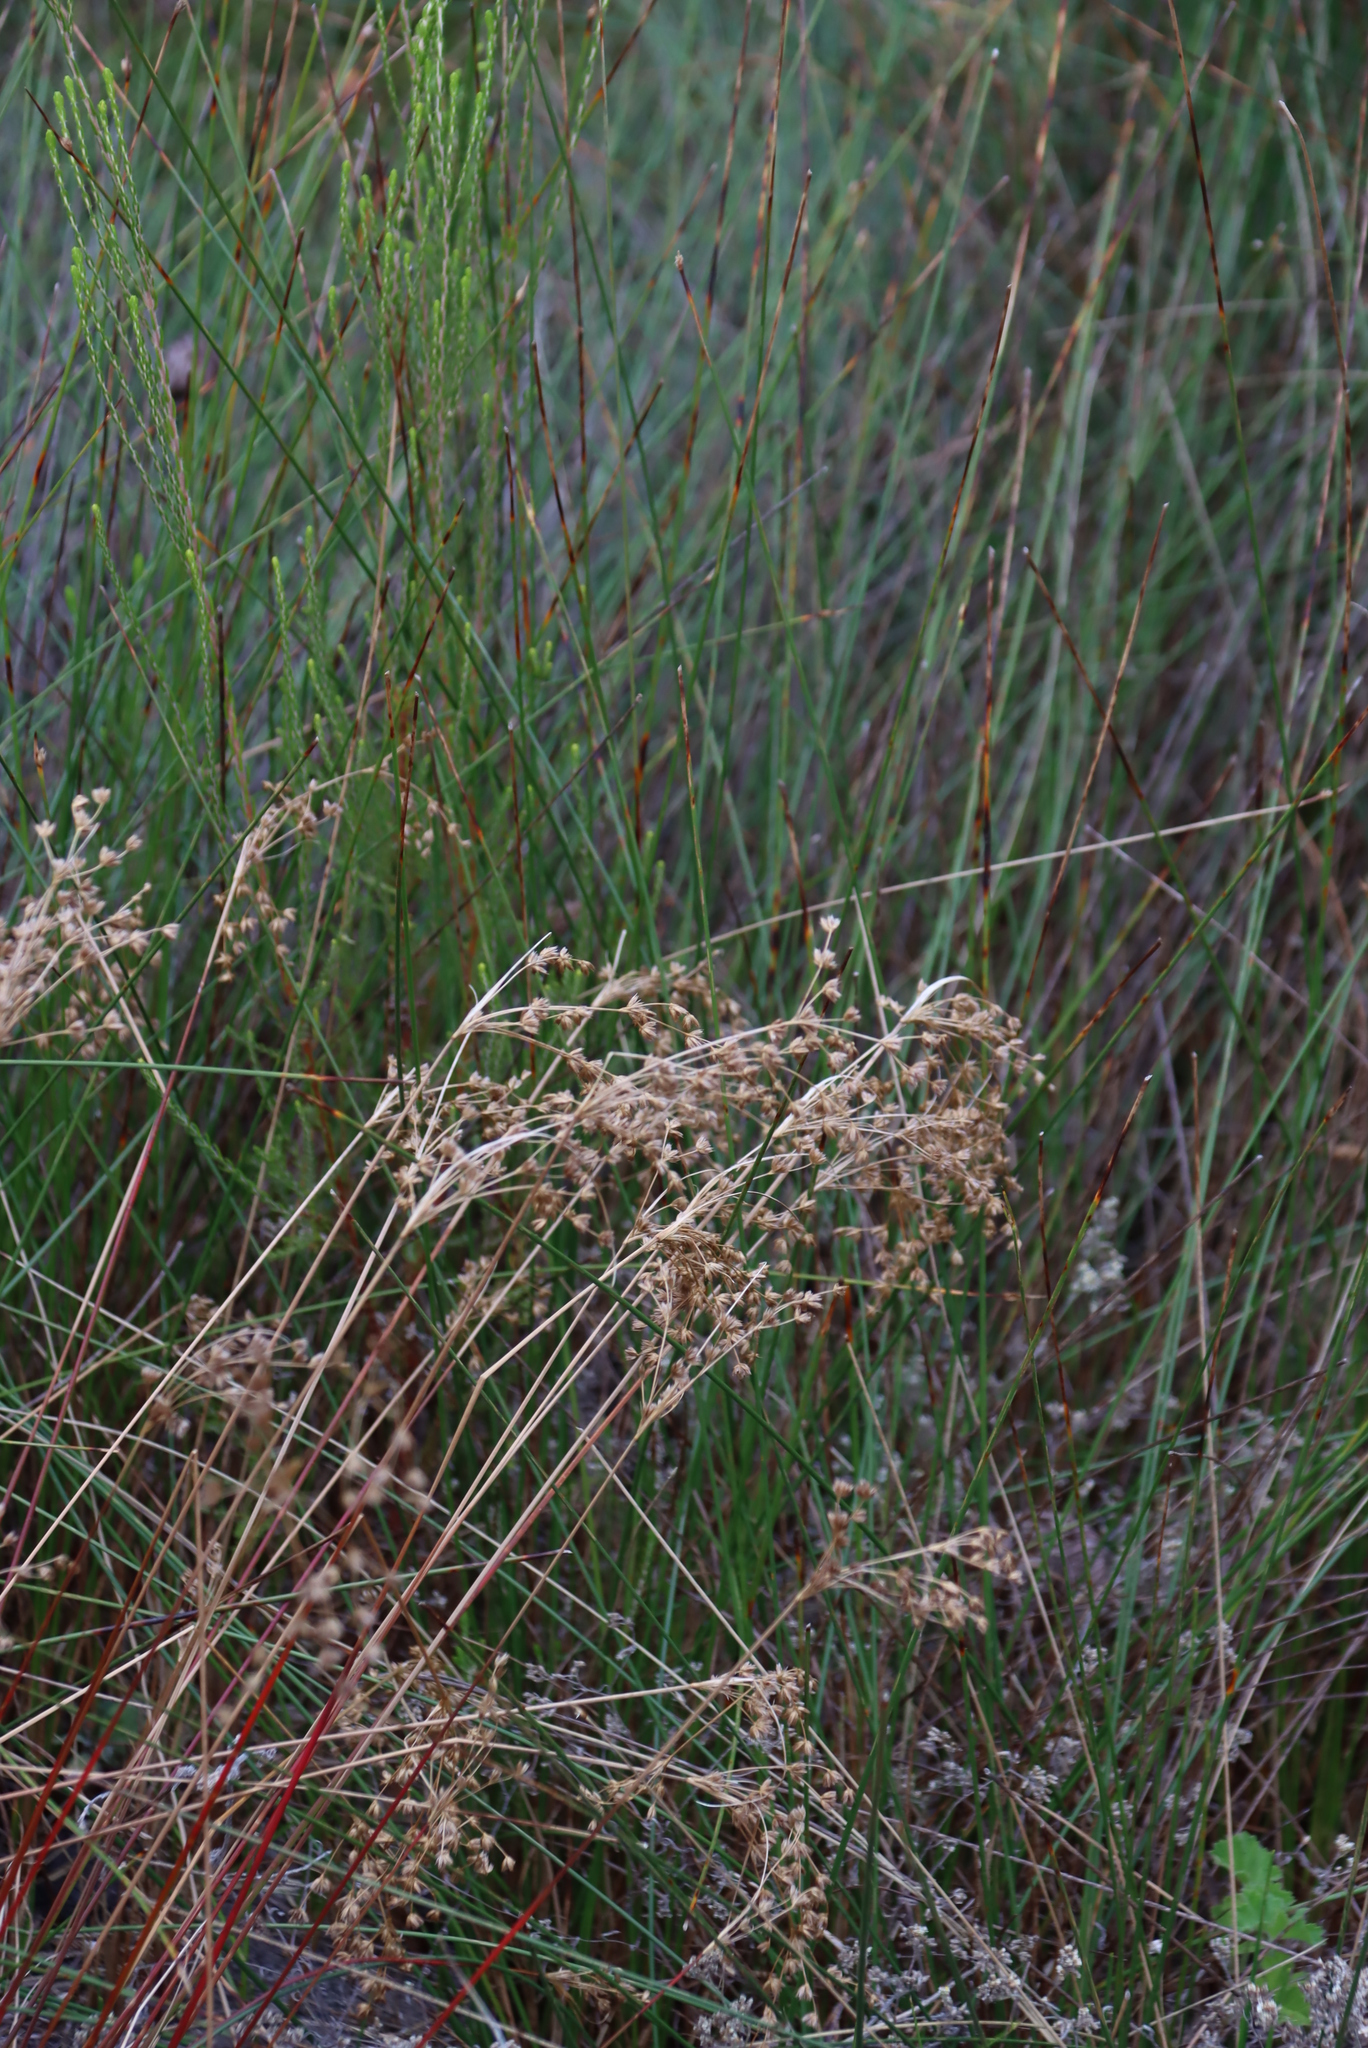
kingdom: Plantae
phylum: Tracheophyta
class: Liliopsida
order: Poales
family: Juncaceae
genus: Juncus
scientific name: Juncus capensis
